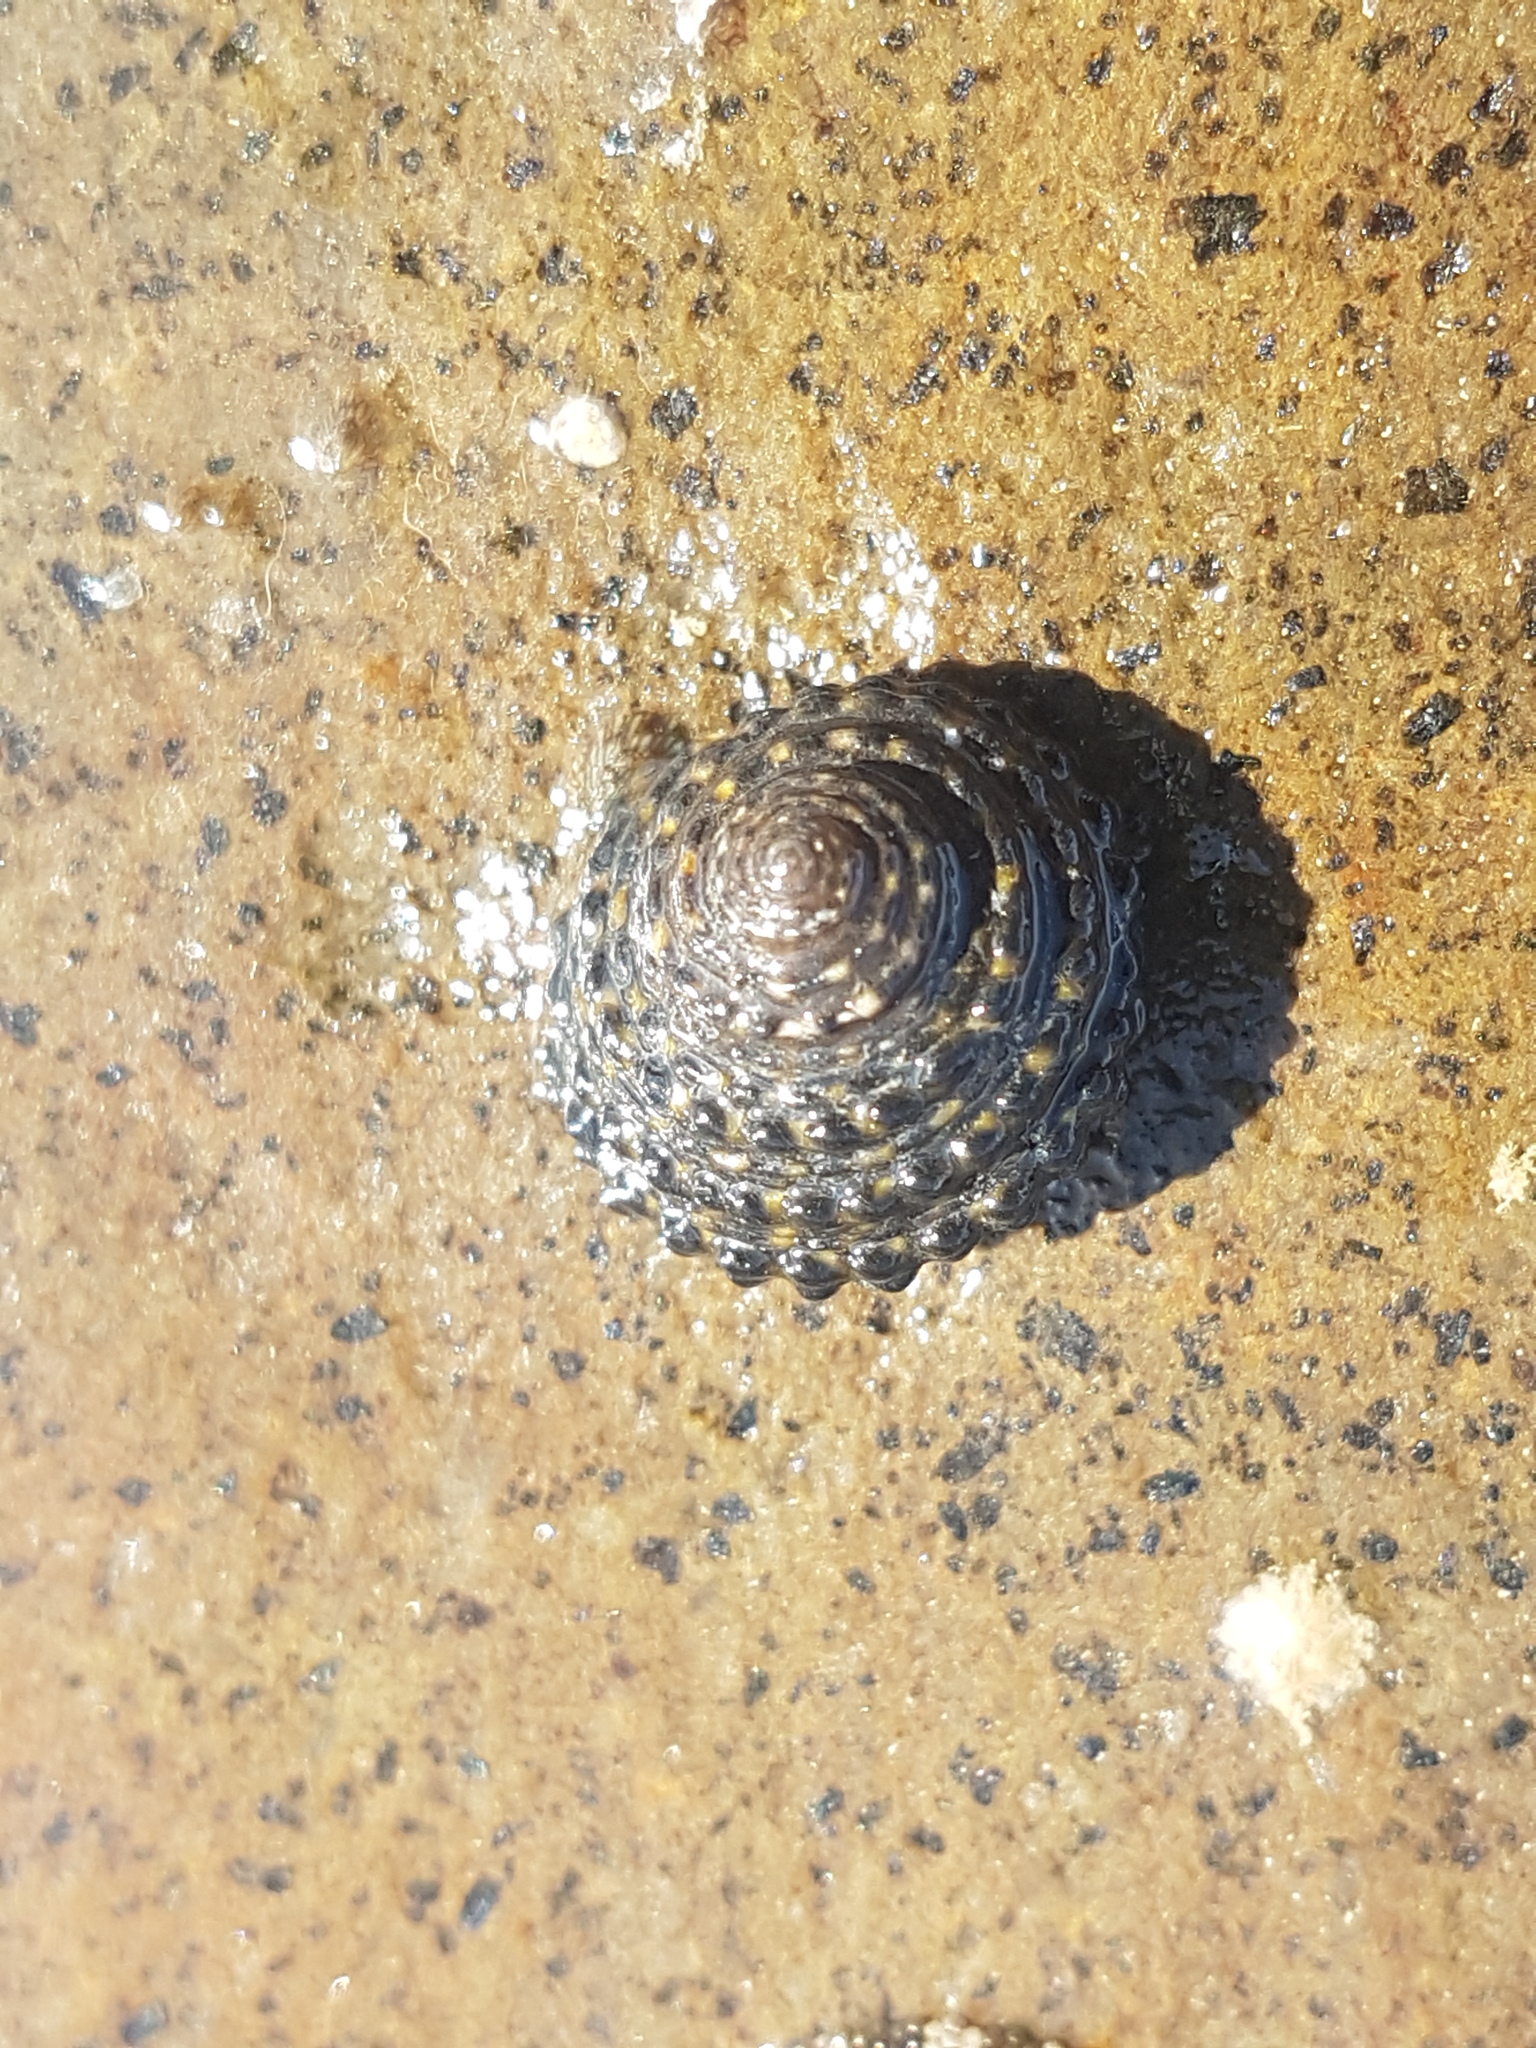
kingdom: Animalia
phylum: Mollusca
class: Gastropoda
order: Trochida
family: Trochidae
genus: Diloma
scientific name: Diloma bicanaliculatum
